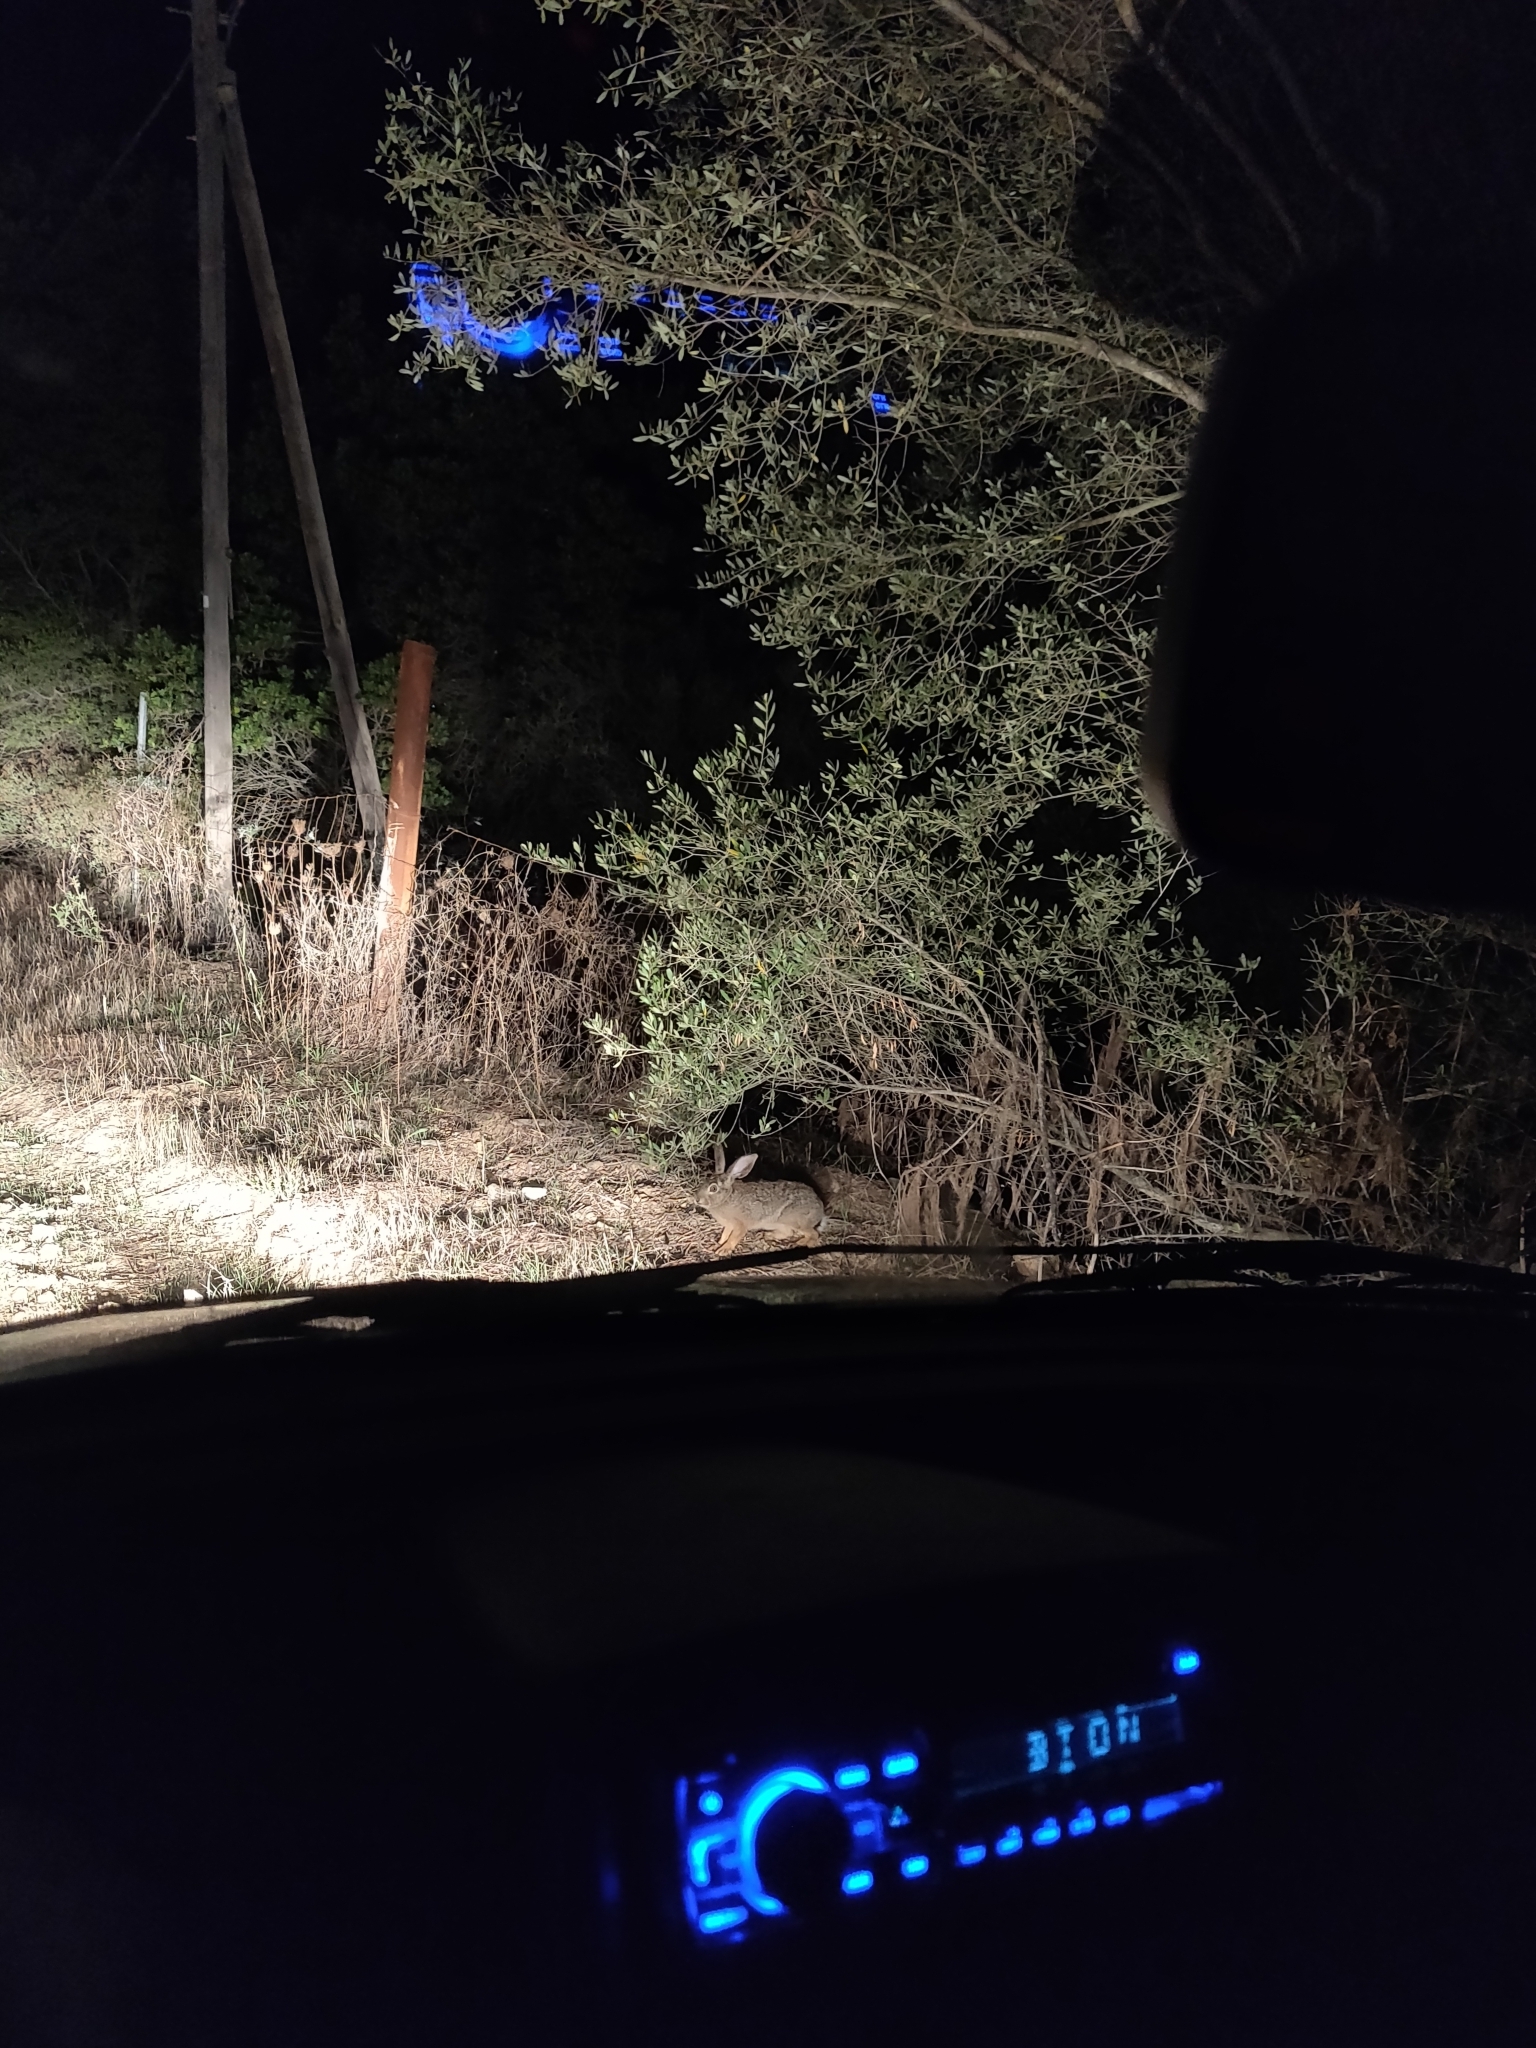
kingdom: Animalia
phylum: Chordata
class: Mammalia
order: Lagomorpha
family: Leporidae
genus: Lepus
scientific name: Lepus capensis
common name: Cape hare
